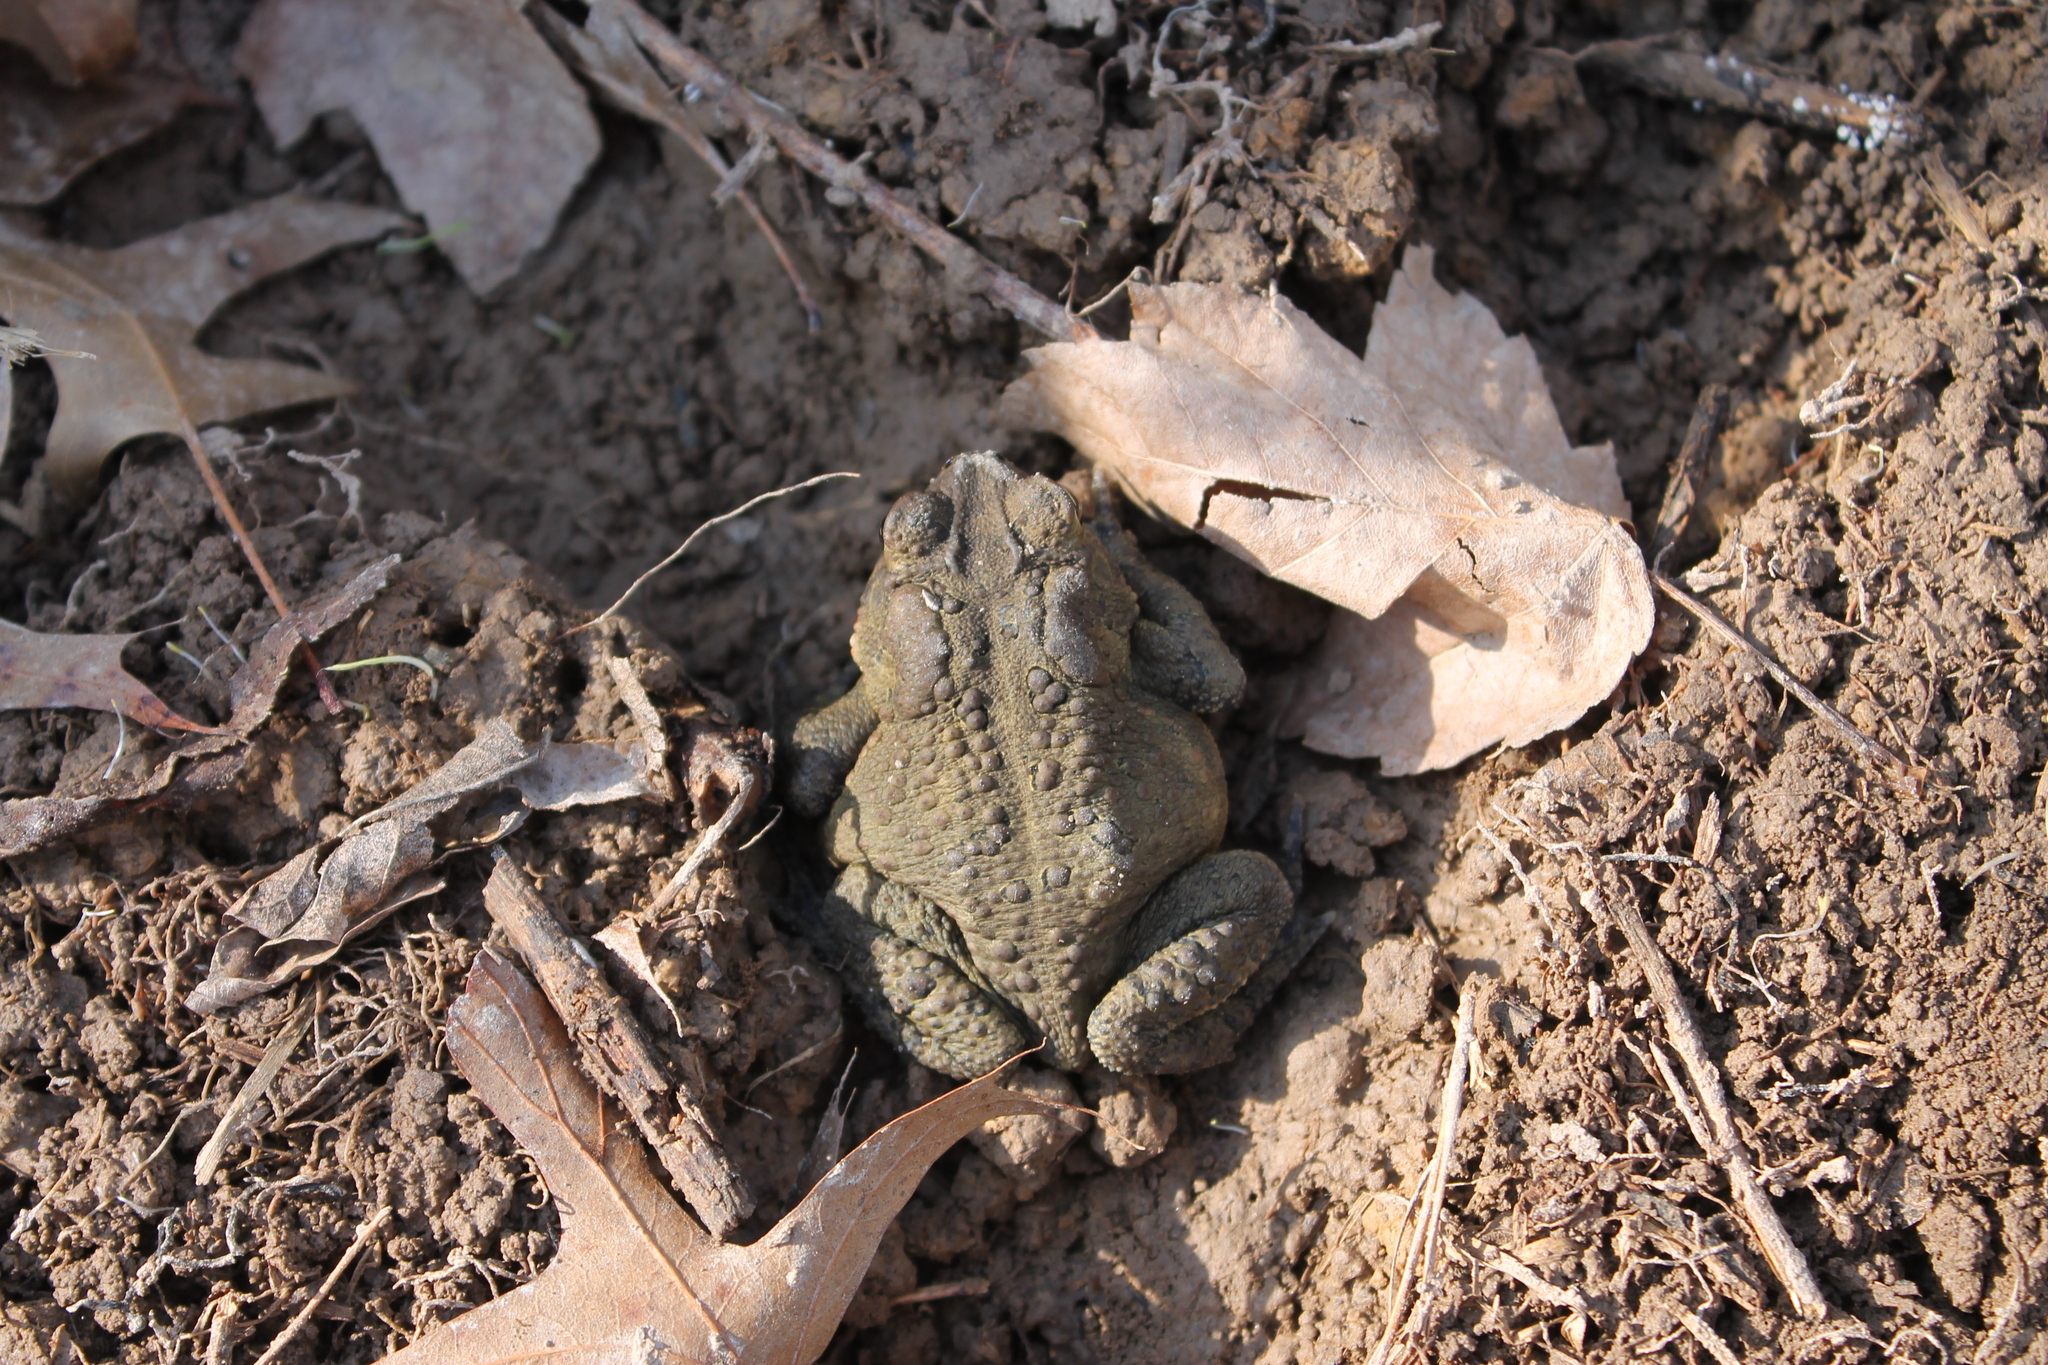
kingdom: Animalia
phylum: Chordata
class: Amphibia
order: Anura
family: Bufonidae
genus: Anaxyrus
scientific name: Anaxyrus americanus
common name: American toad
